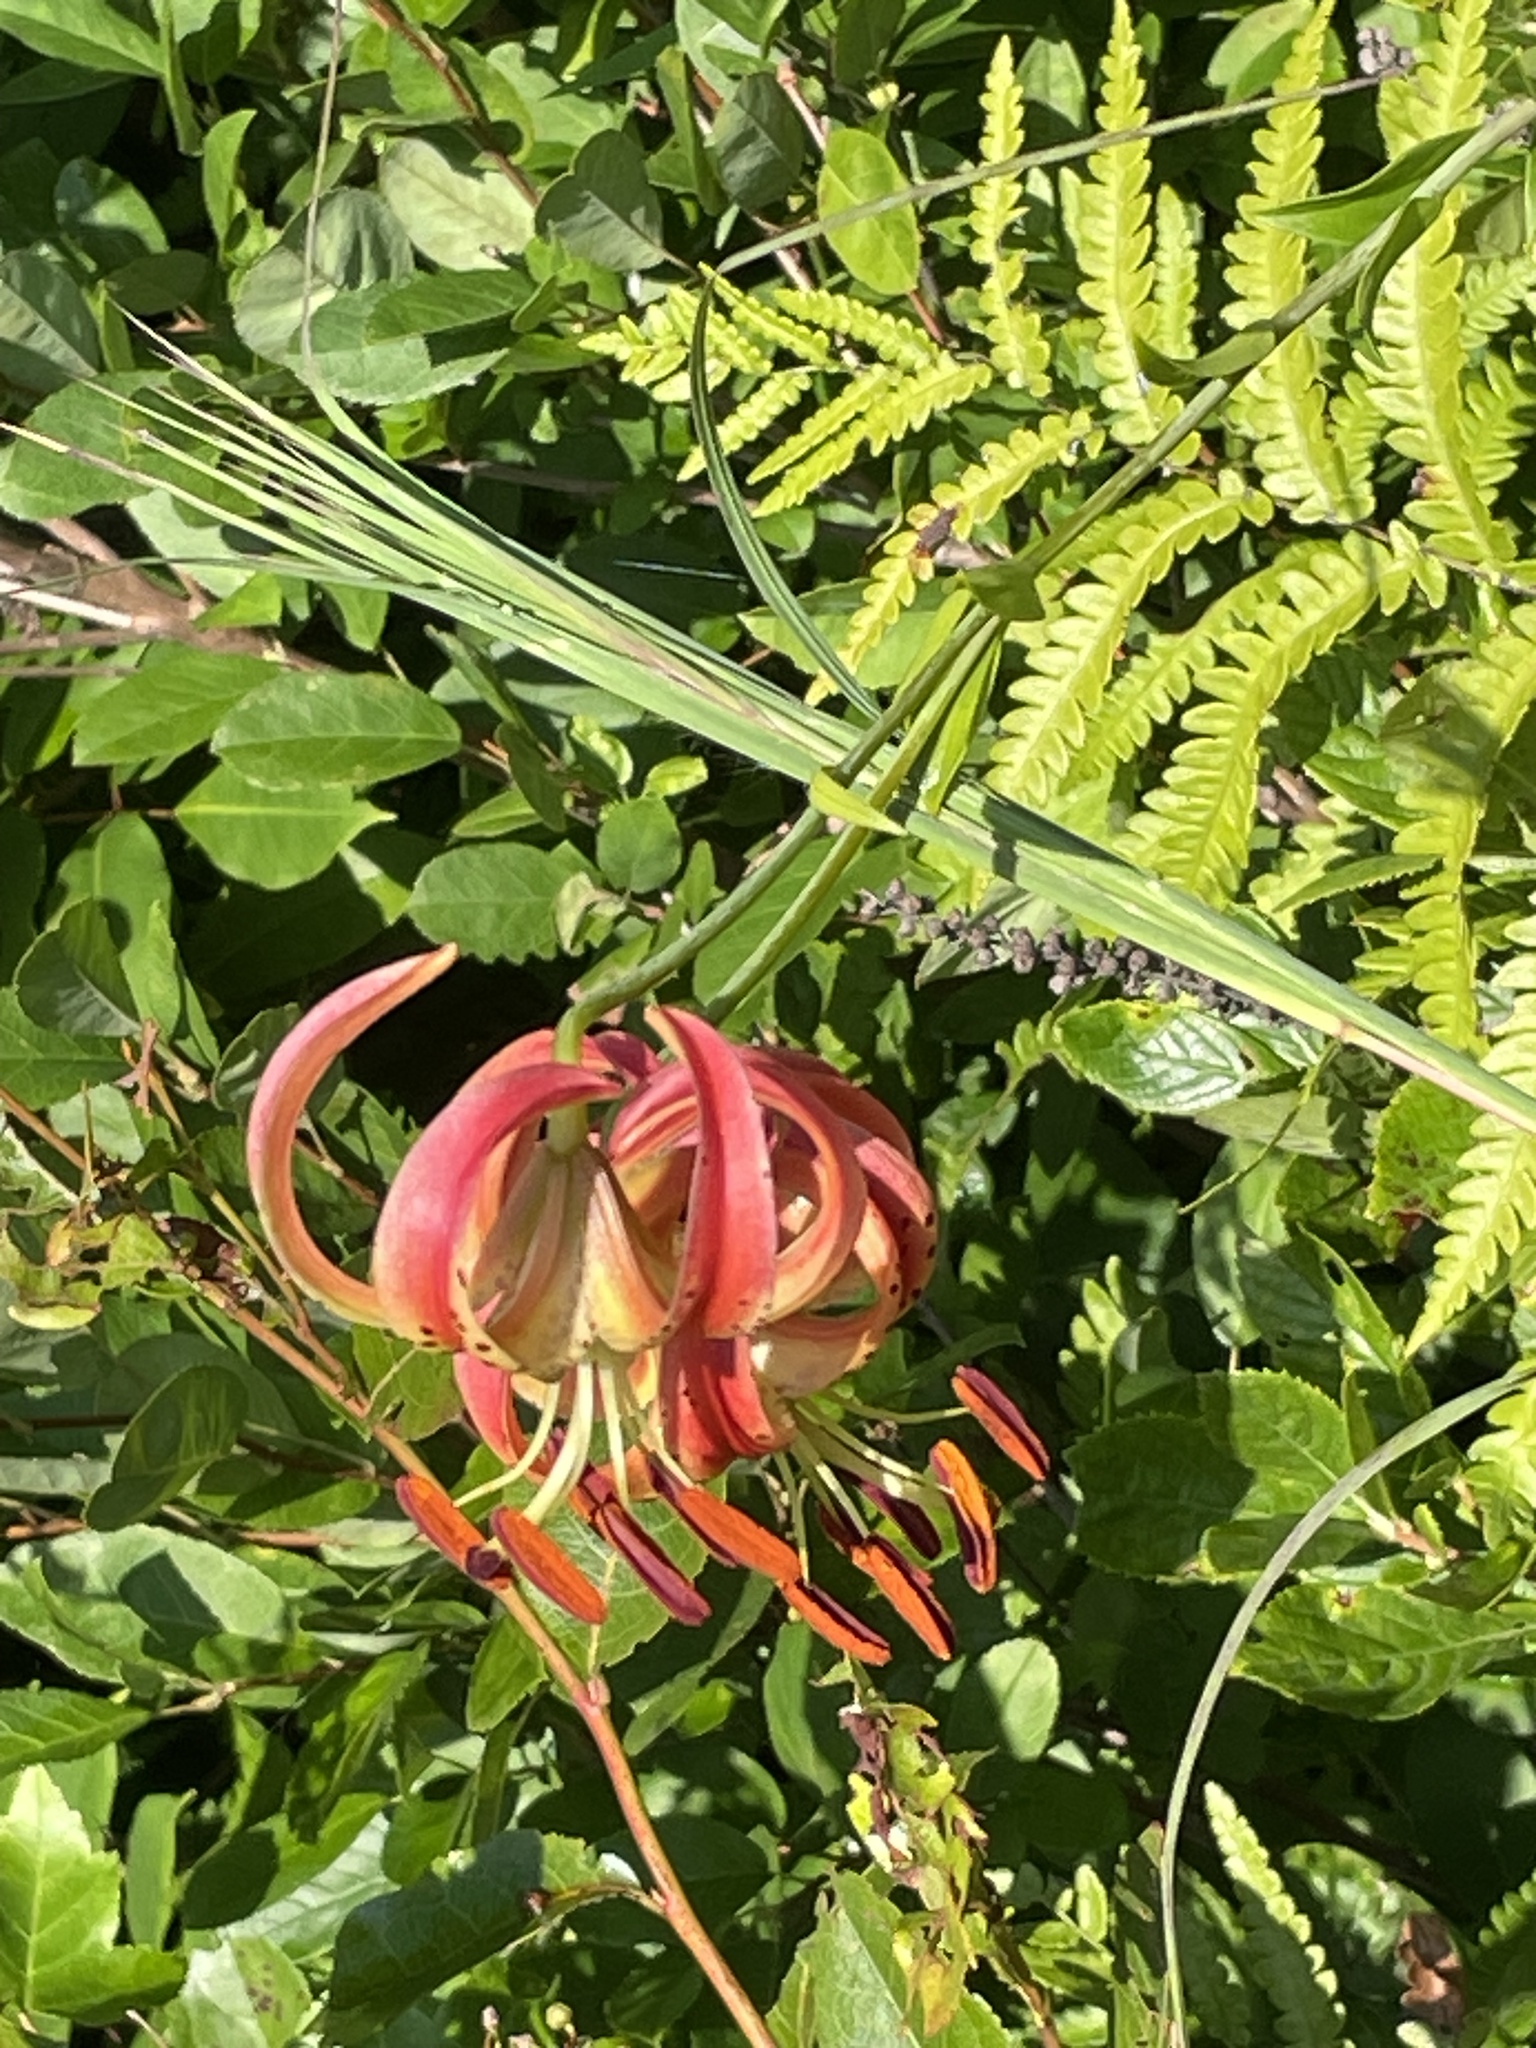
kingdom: Plantae
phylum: Tracheophyta
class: Liliopsida
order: Liliales
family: Liliaceae
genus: Lilium
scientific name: Lilium pyrophilum
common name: Sandhills lily
